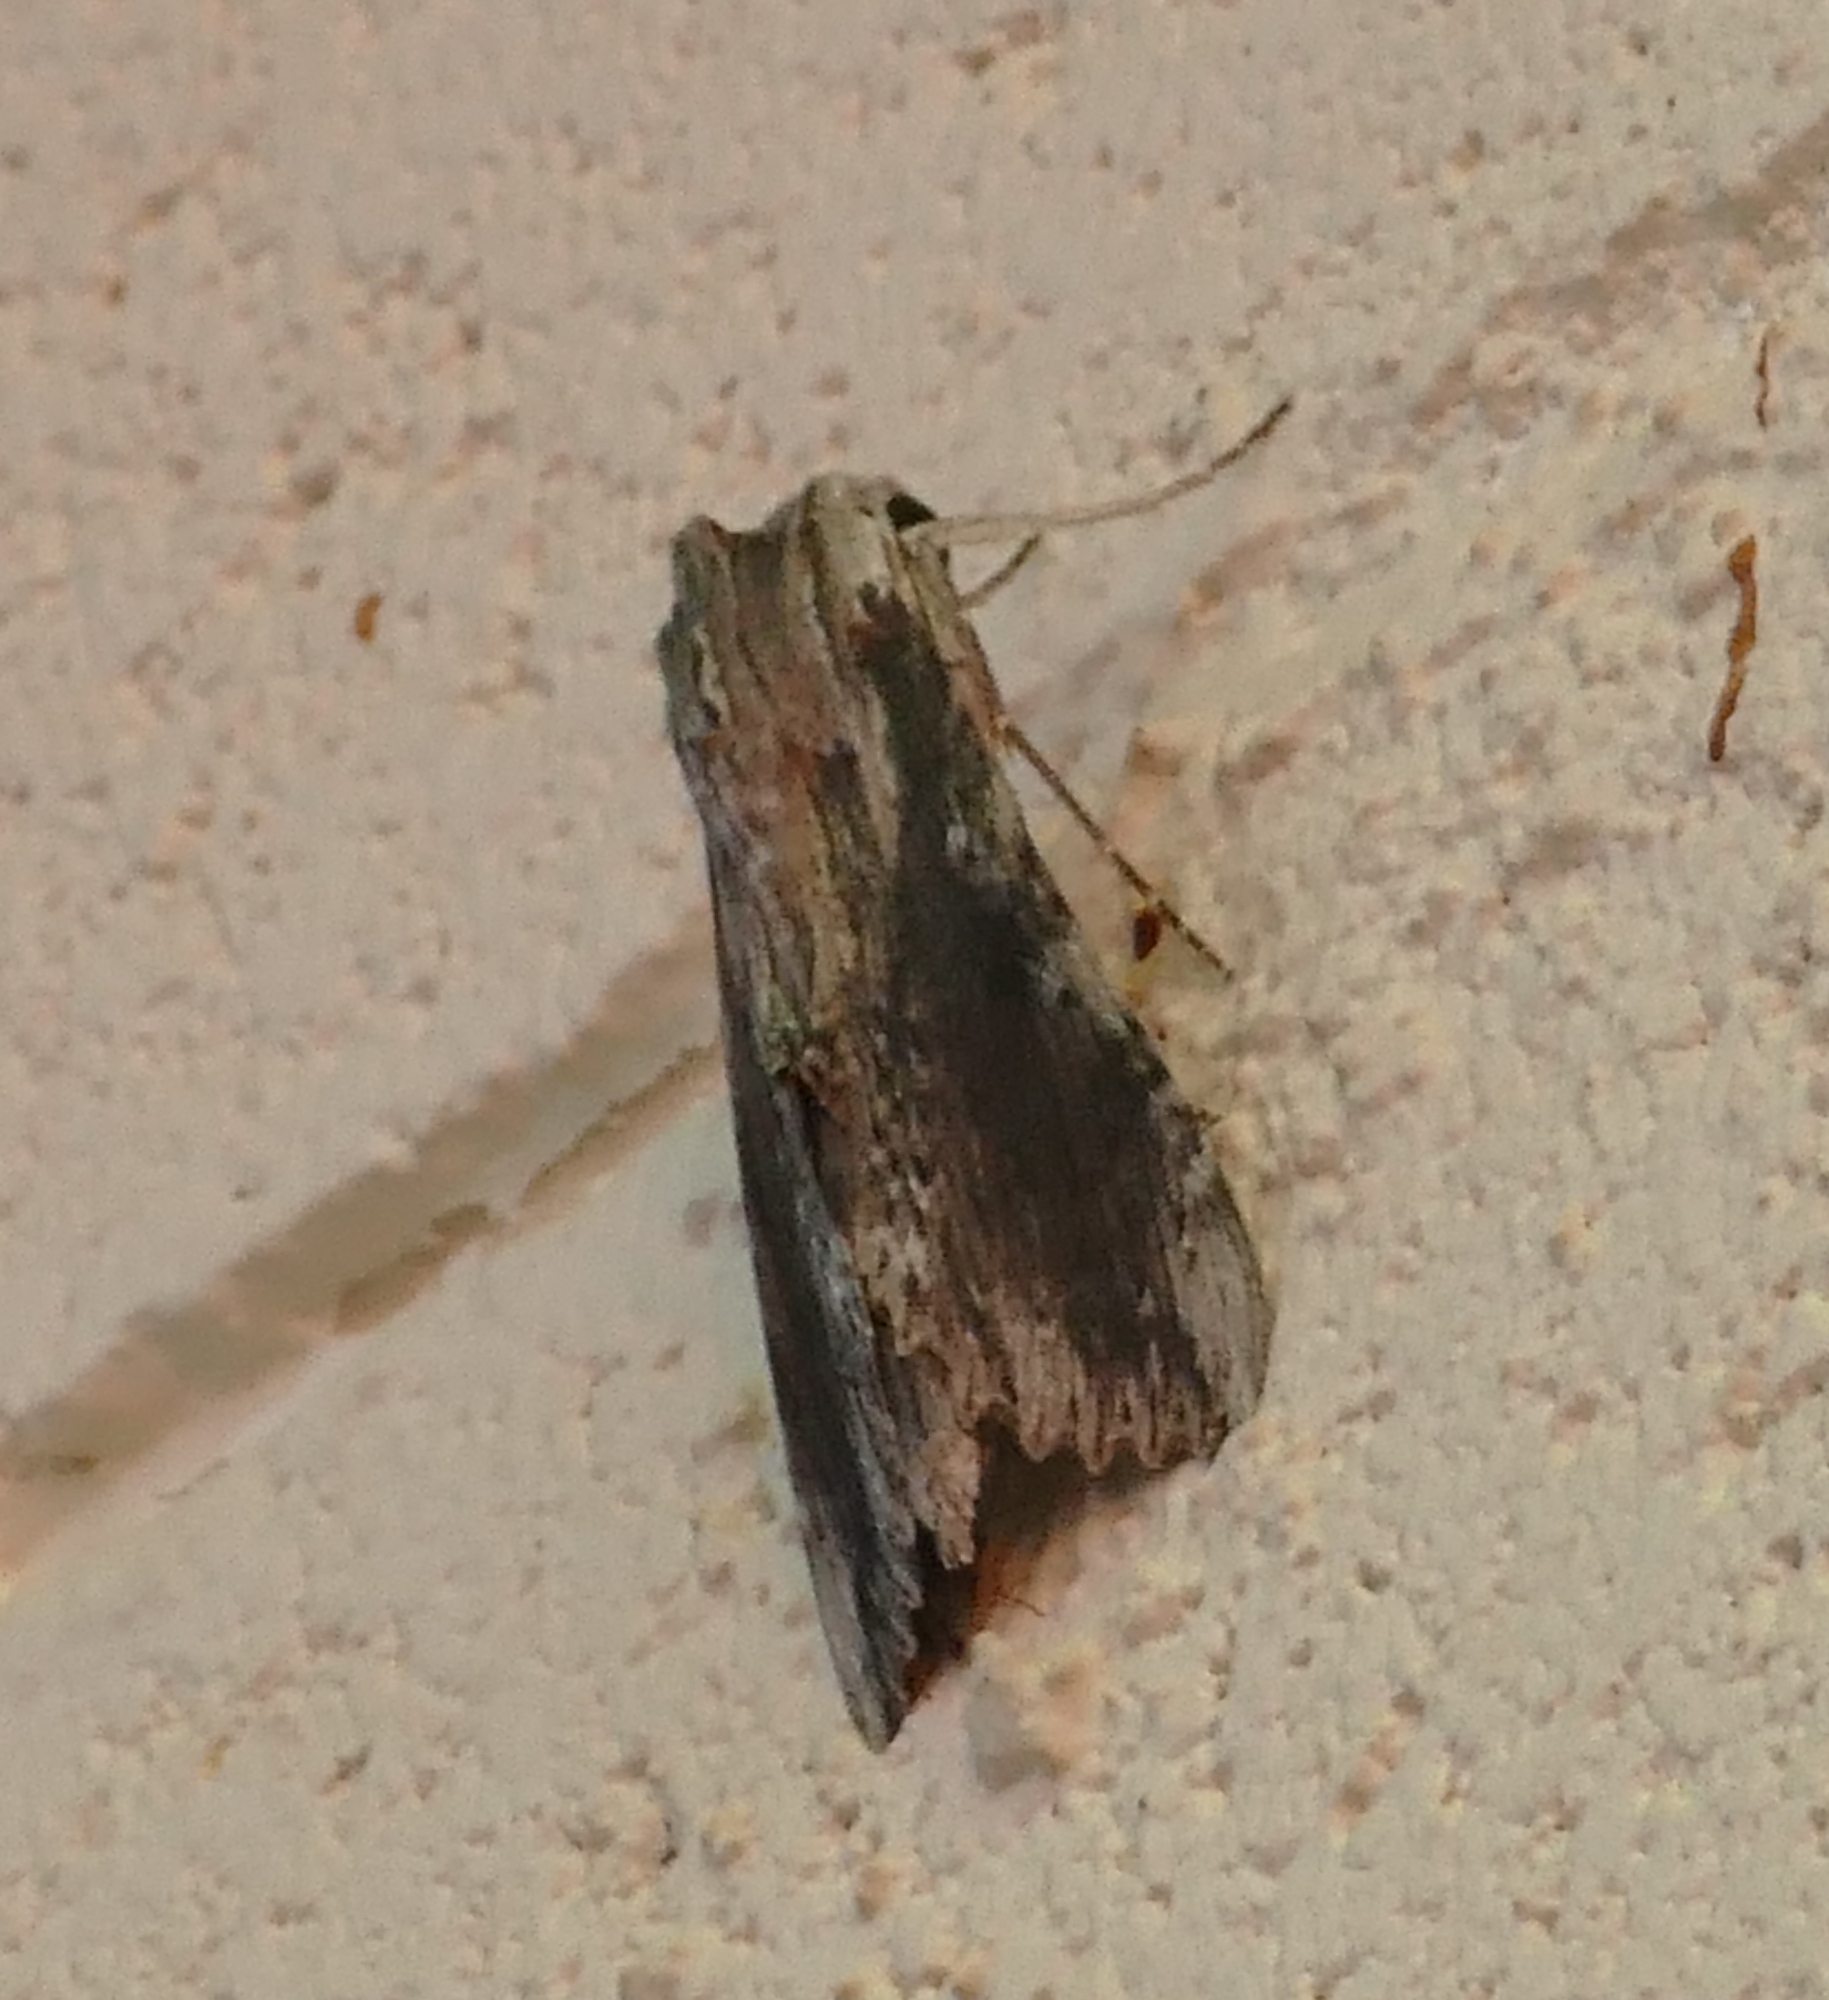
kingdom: Animalia
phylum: Arthropoda
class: Insecta
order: Lepidoptera
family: Sphingidae
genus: Erinnyis
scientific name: Erinnyis obscura
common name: Obscure sphinx
